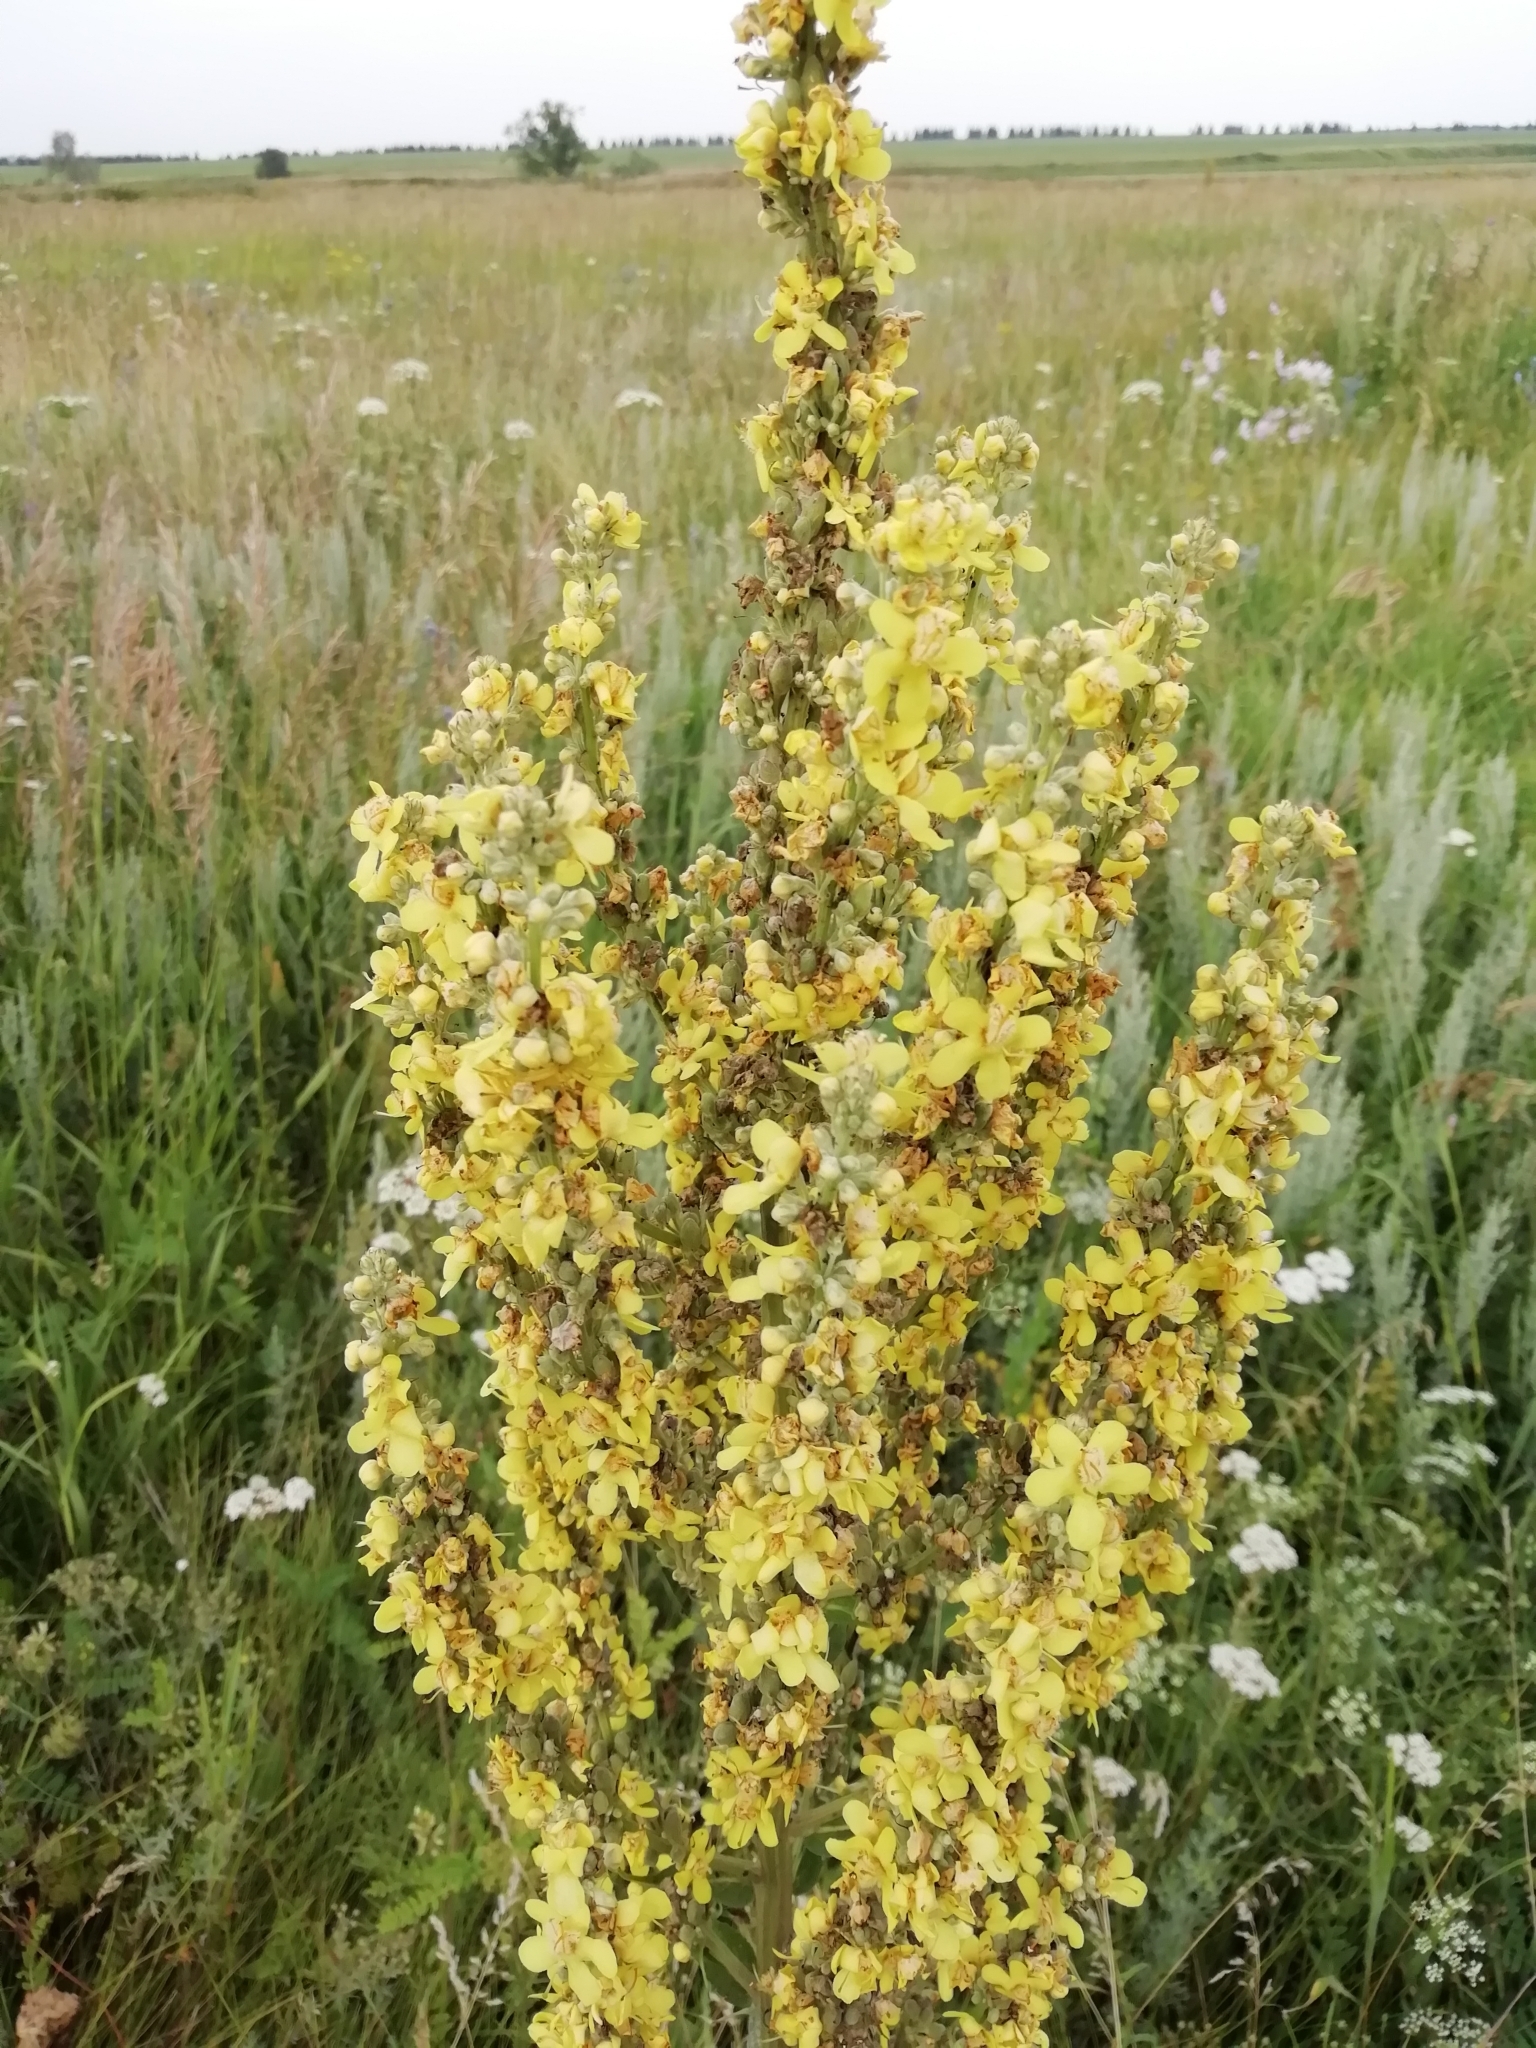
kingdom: Plantae
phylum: Tracheophyta
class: Magnoliopsida
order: Lamiales
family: Scrophulariaceae
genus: Verbascum
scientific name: Verbascum lychnitis
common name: White mullein
